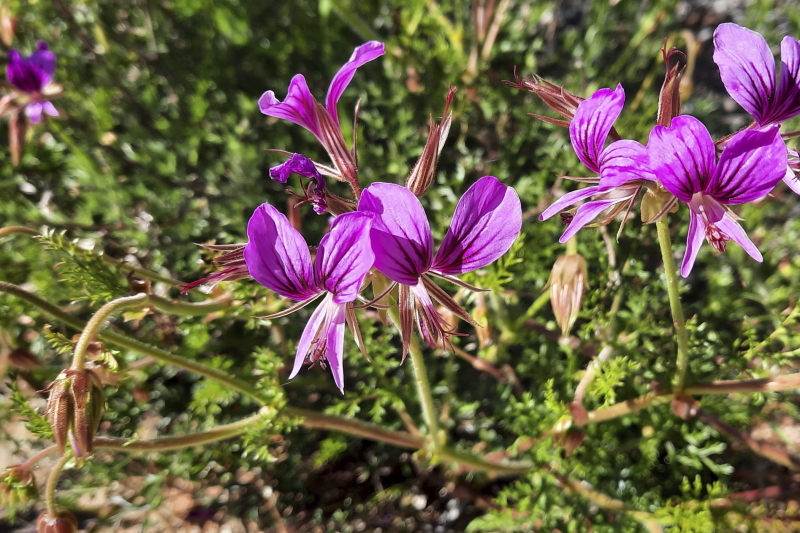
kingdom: Plantae
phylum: Tracheophyta
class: Magnoliopsida
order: Geraniales
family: Geraniaceae
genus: Pelargonium
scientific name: Pelargonium myrrhifolium
